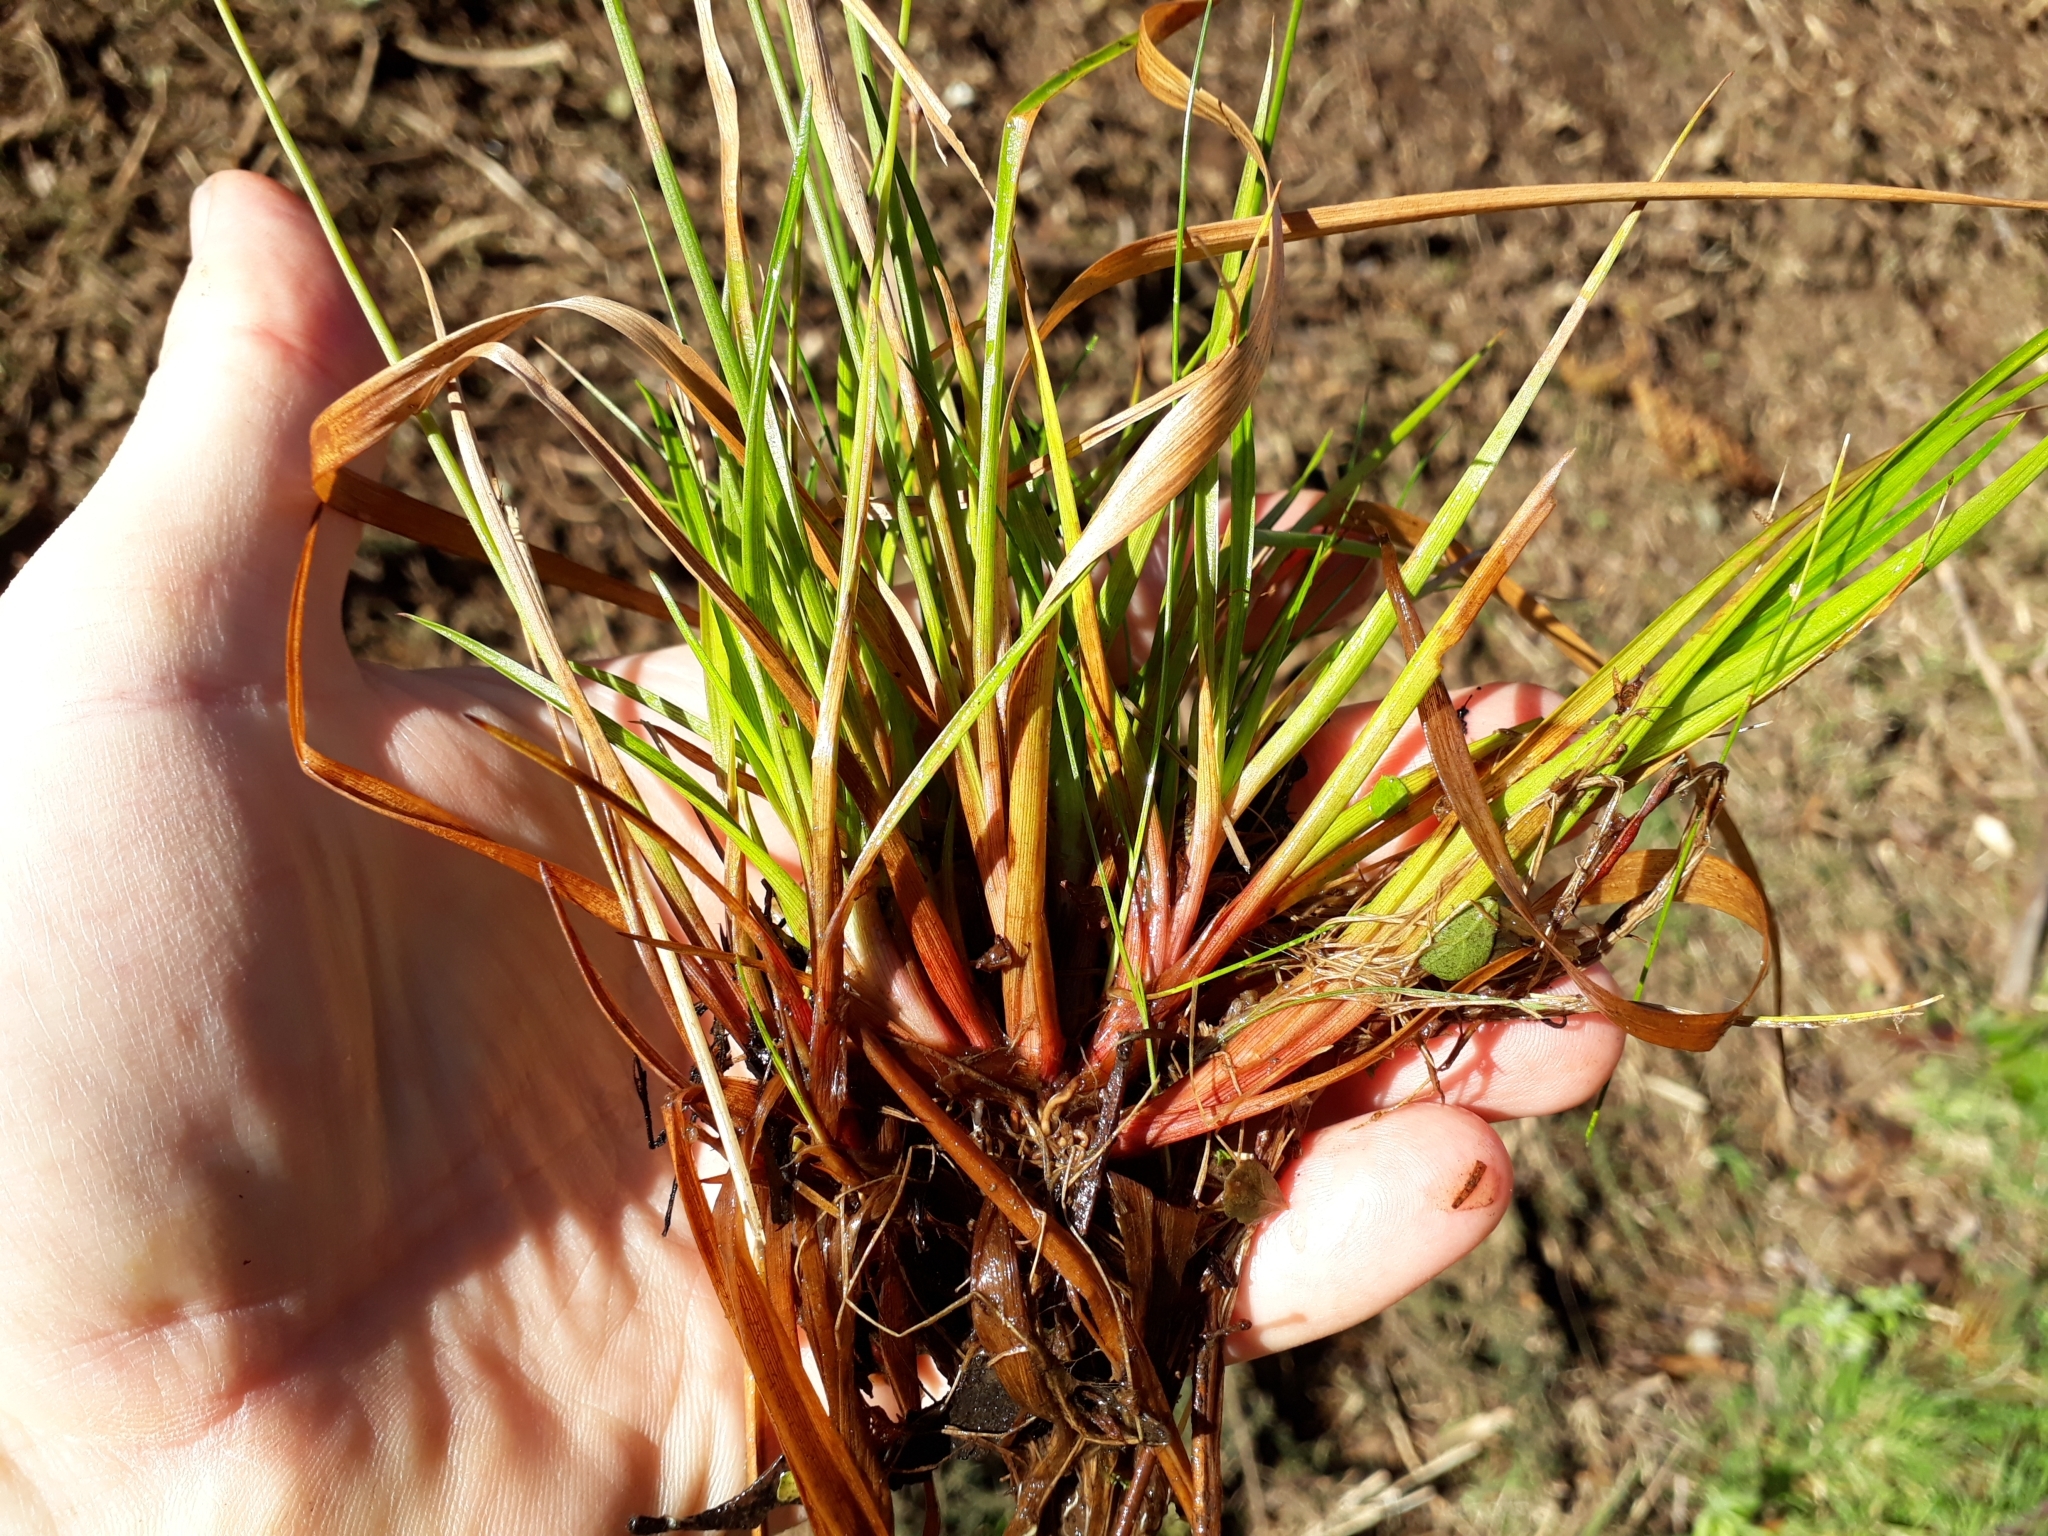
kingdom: Plantae
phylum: Tracheophyta
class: Liliopsida
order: Poales
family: Juncaceae
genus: Juncus
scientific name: Juncus planifolius
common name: Broadleaf rush
